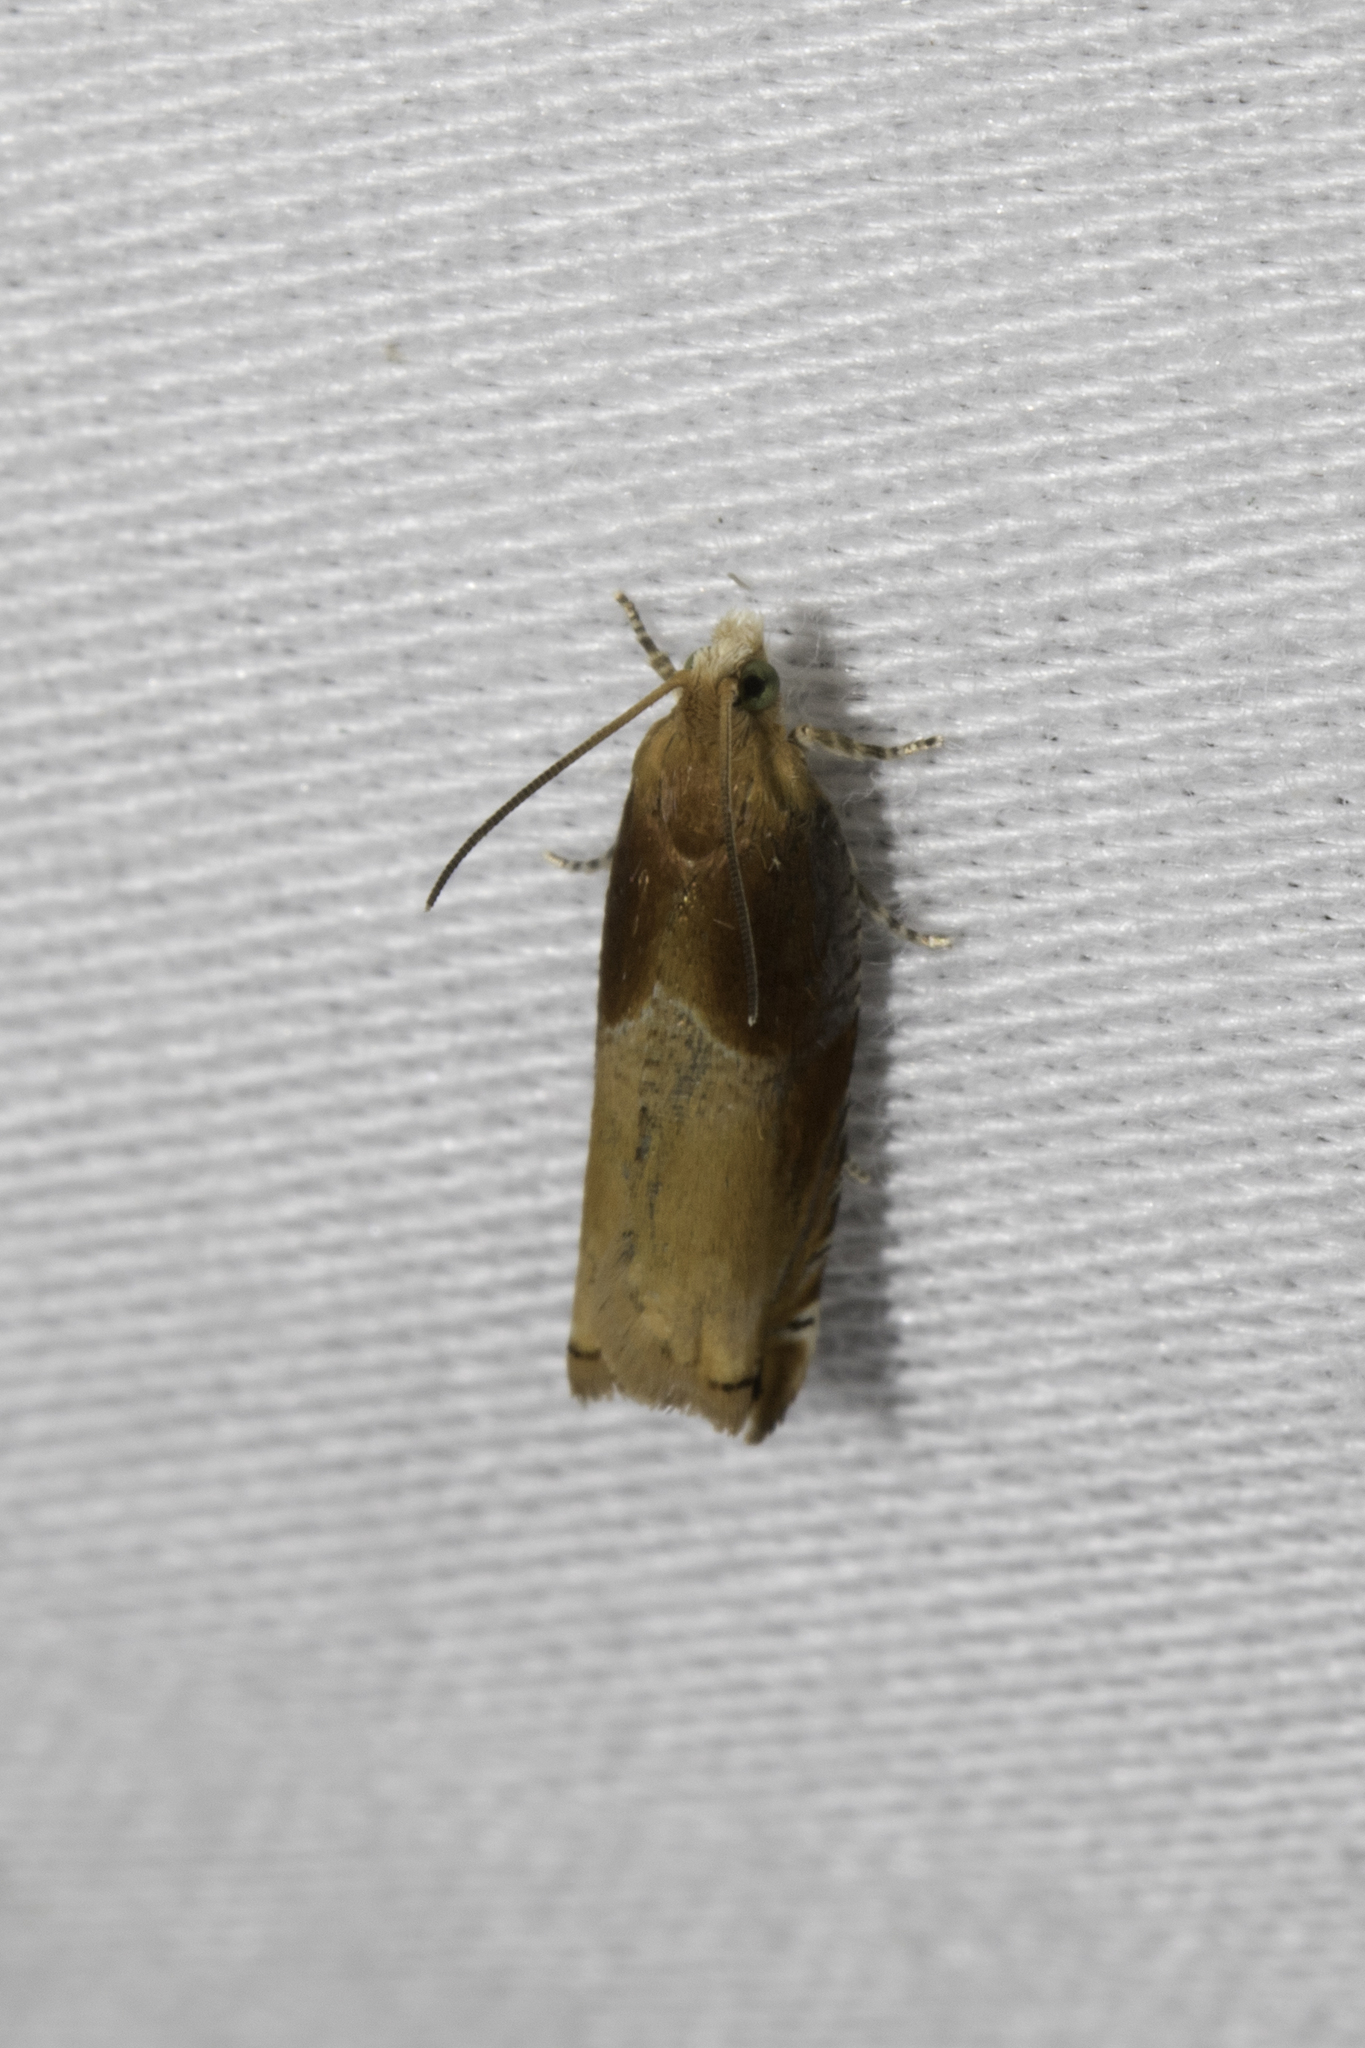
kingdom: Animalia
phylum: Arthropoda
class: Insecta
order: Lepidoptera
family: Tortricidae
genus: Ancylis
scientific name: Ancylis divisana
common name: Two-toned ancylis moth
